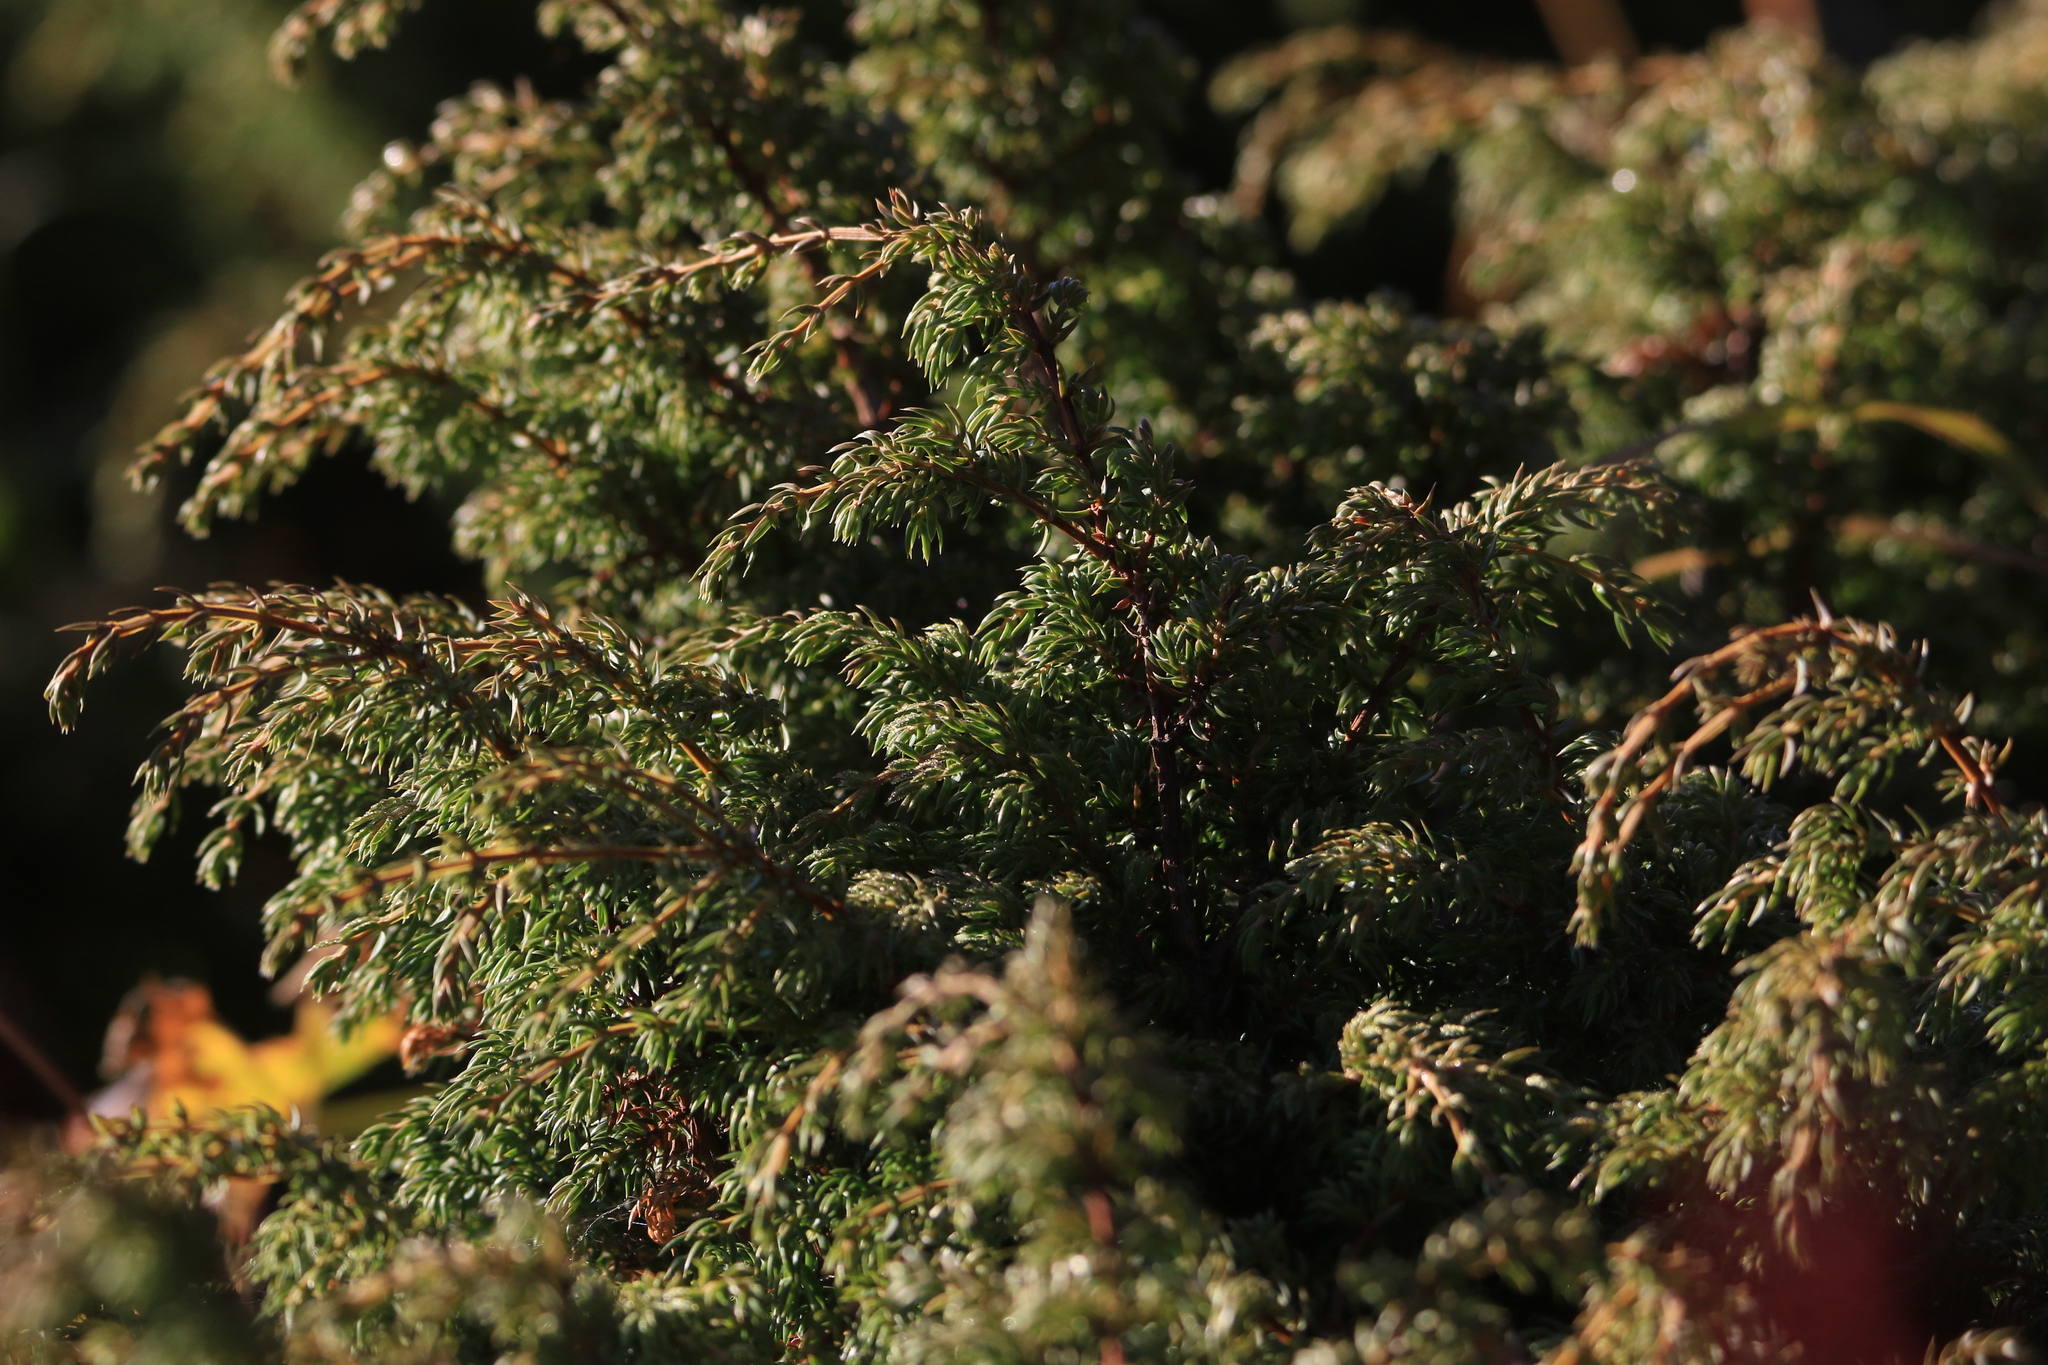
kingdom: Plantae
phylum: Tracheophyta
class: Pinopsida
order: Pinales
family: Cupressaceae
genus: Juniperus
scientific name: Juniperus communis
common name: Common juniper
